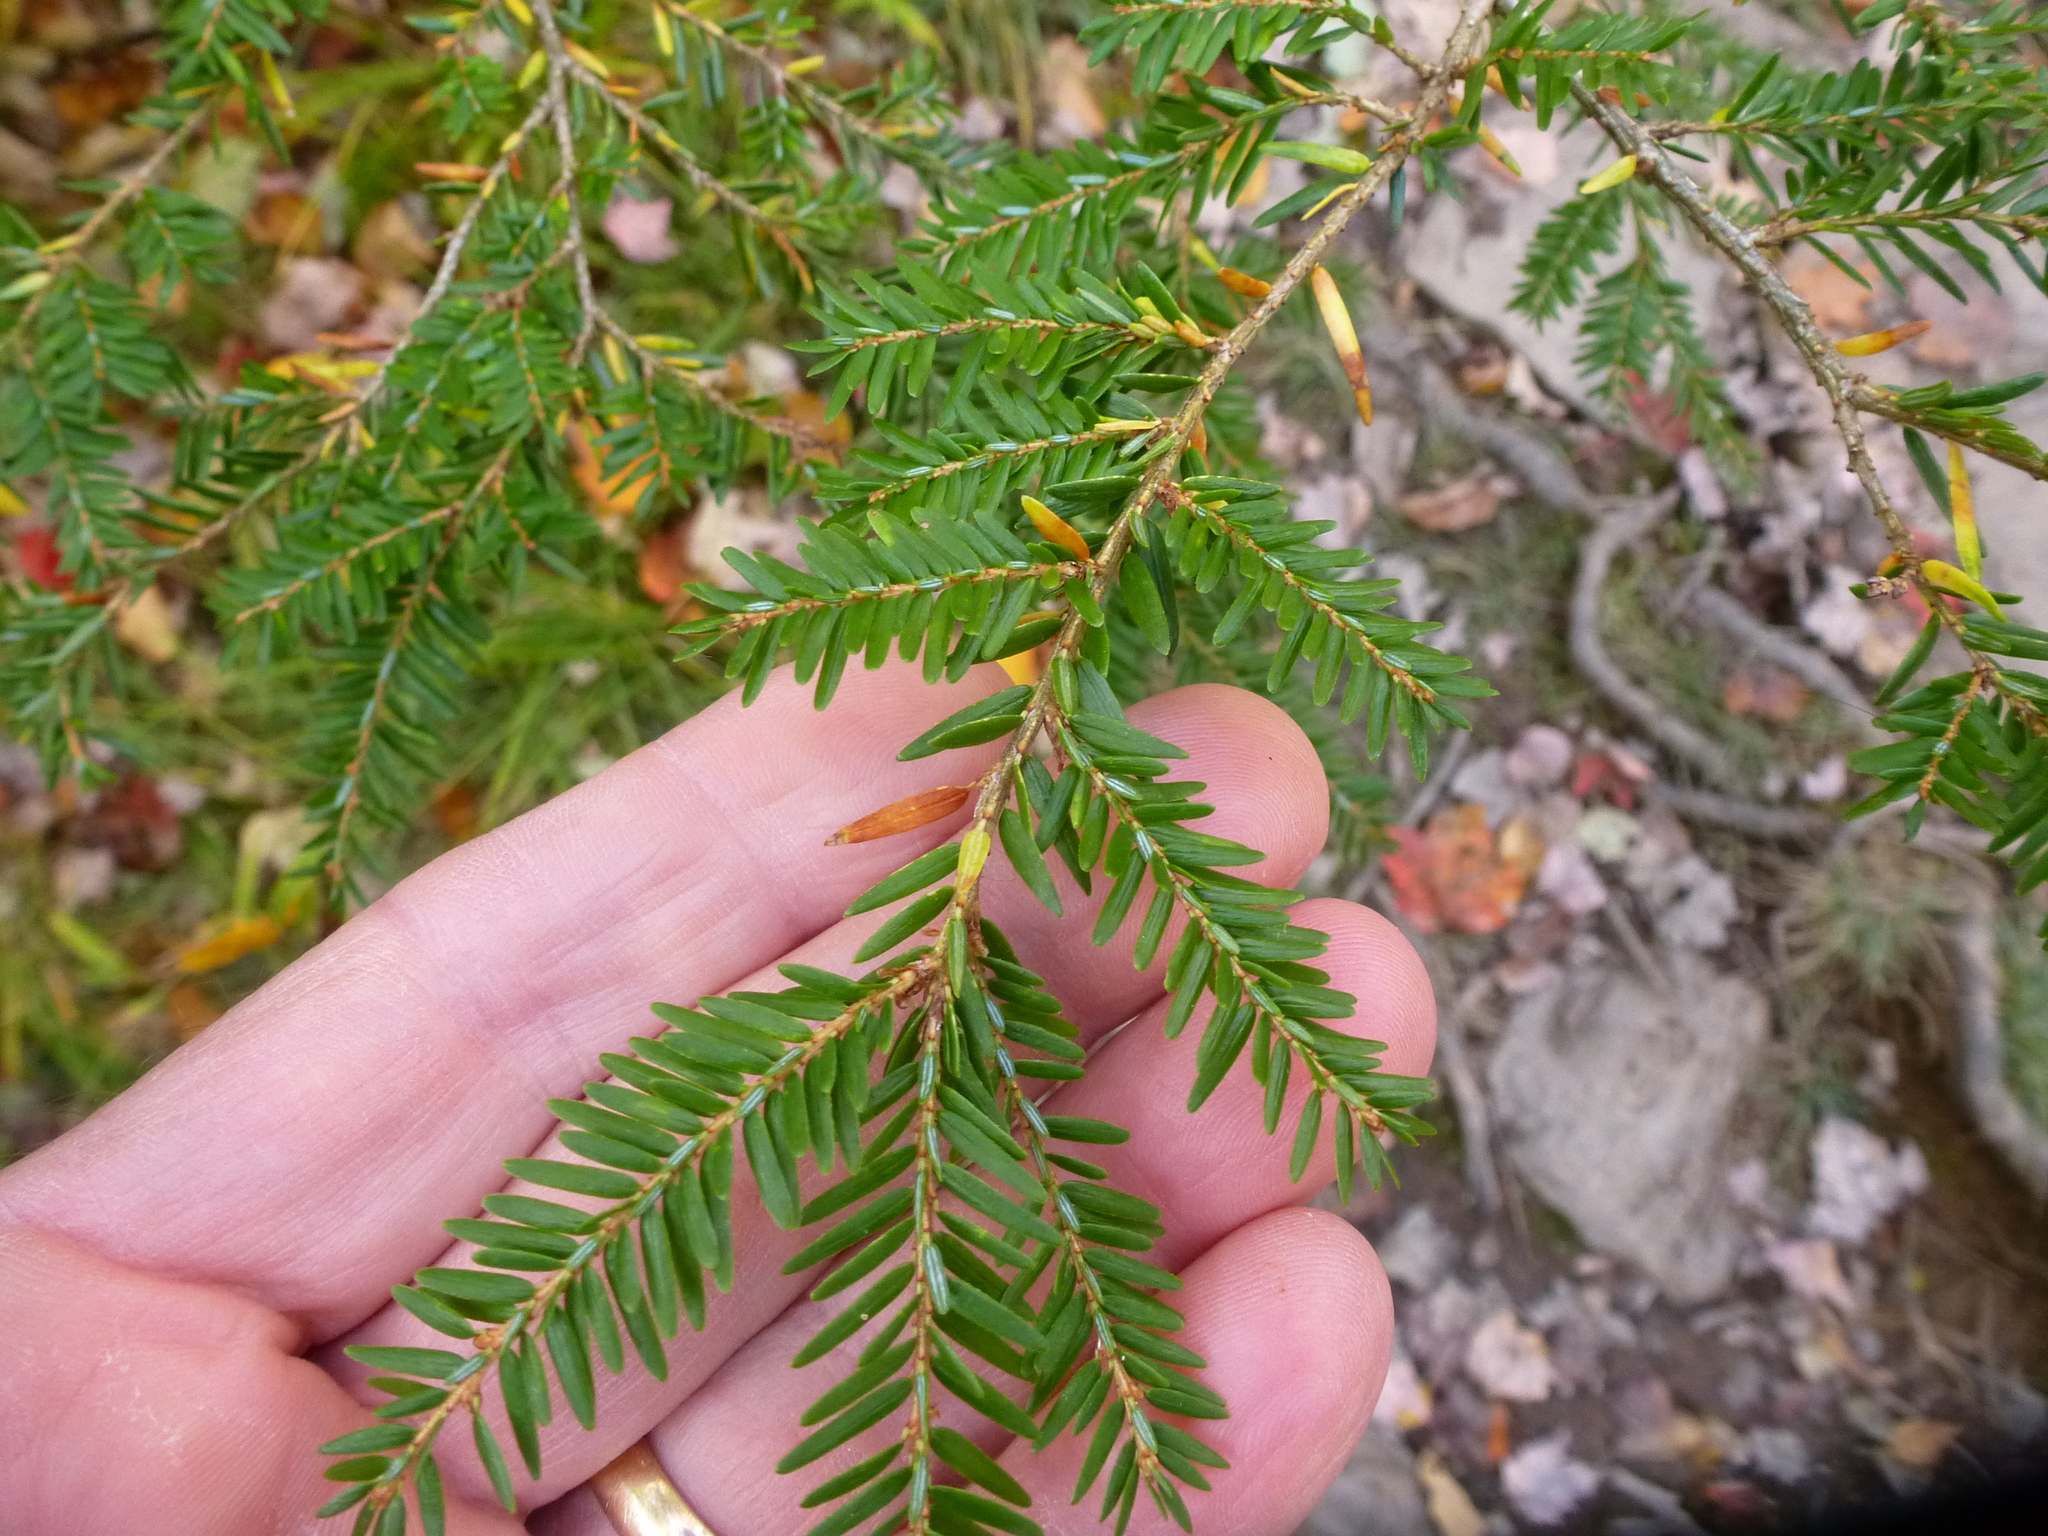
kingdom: Plantae
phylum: Tracheophyta
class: Pinopsida
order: Pinales
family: Pinaceae
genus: Tsuga
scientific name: Tsuga canadensis
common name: Eastern hemlock
